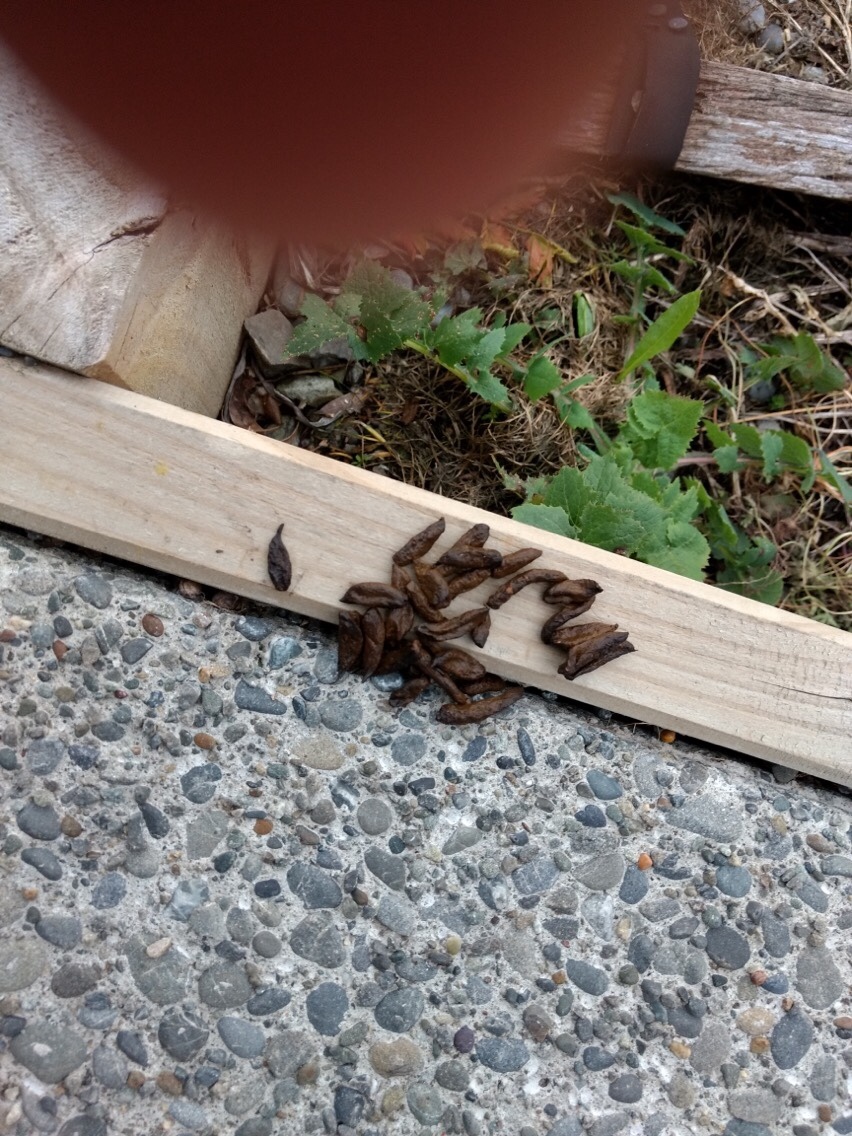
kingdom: Animalia
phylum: Chordata
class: Mammalia
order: Diprotodontia
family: Phalangeridae
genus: Trichosurus
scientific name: Trichosurus vulpecula
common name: Common brushtail
